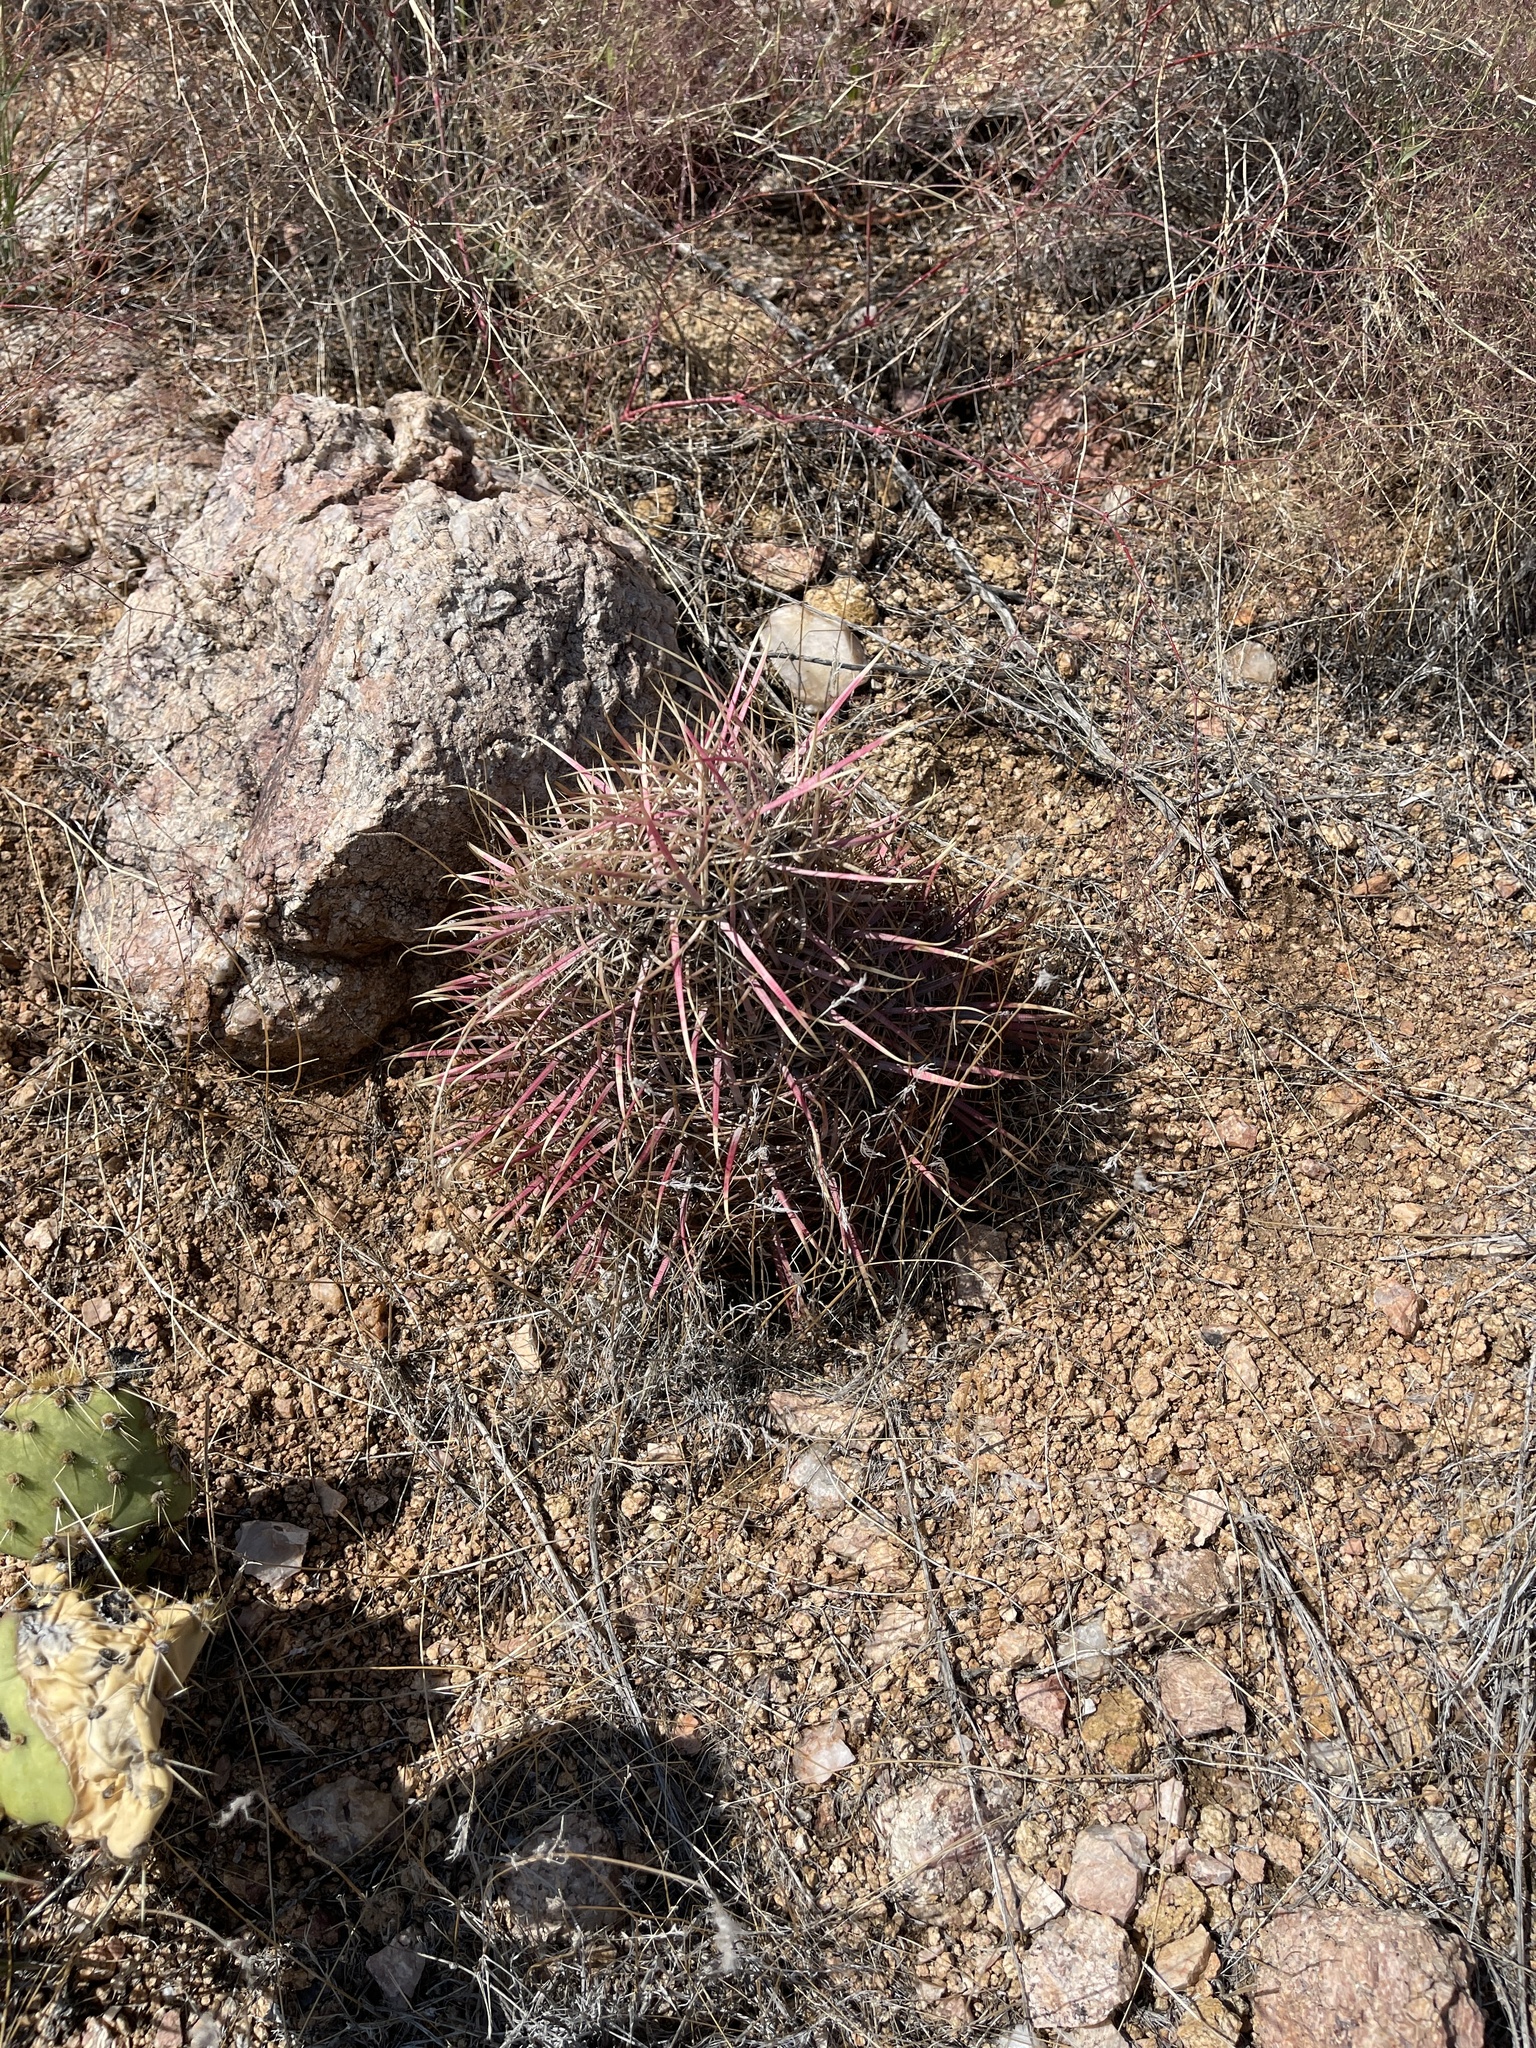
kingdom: Plantae
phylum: Tracheophyta
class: Magnoliopsida
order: Caryophyllales
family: Cactaceae
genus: Ferocactus
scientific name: Ferocactus cylindraceus
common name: California barrel cactus
